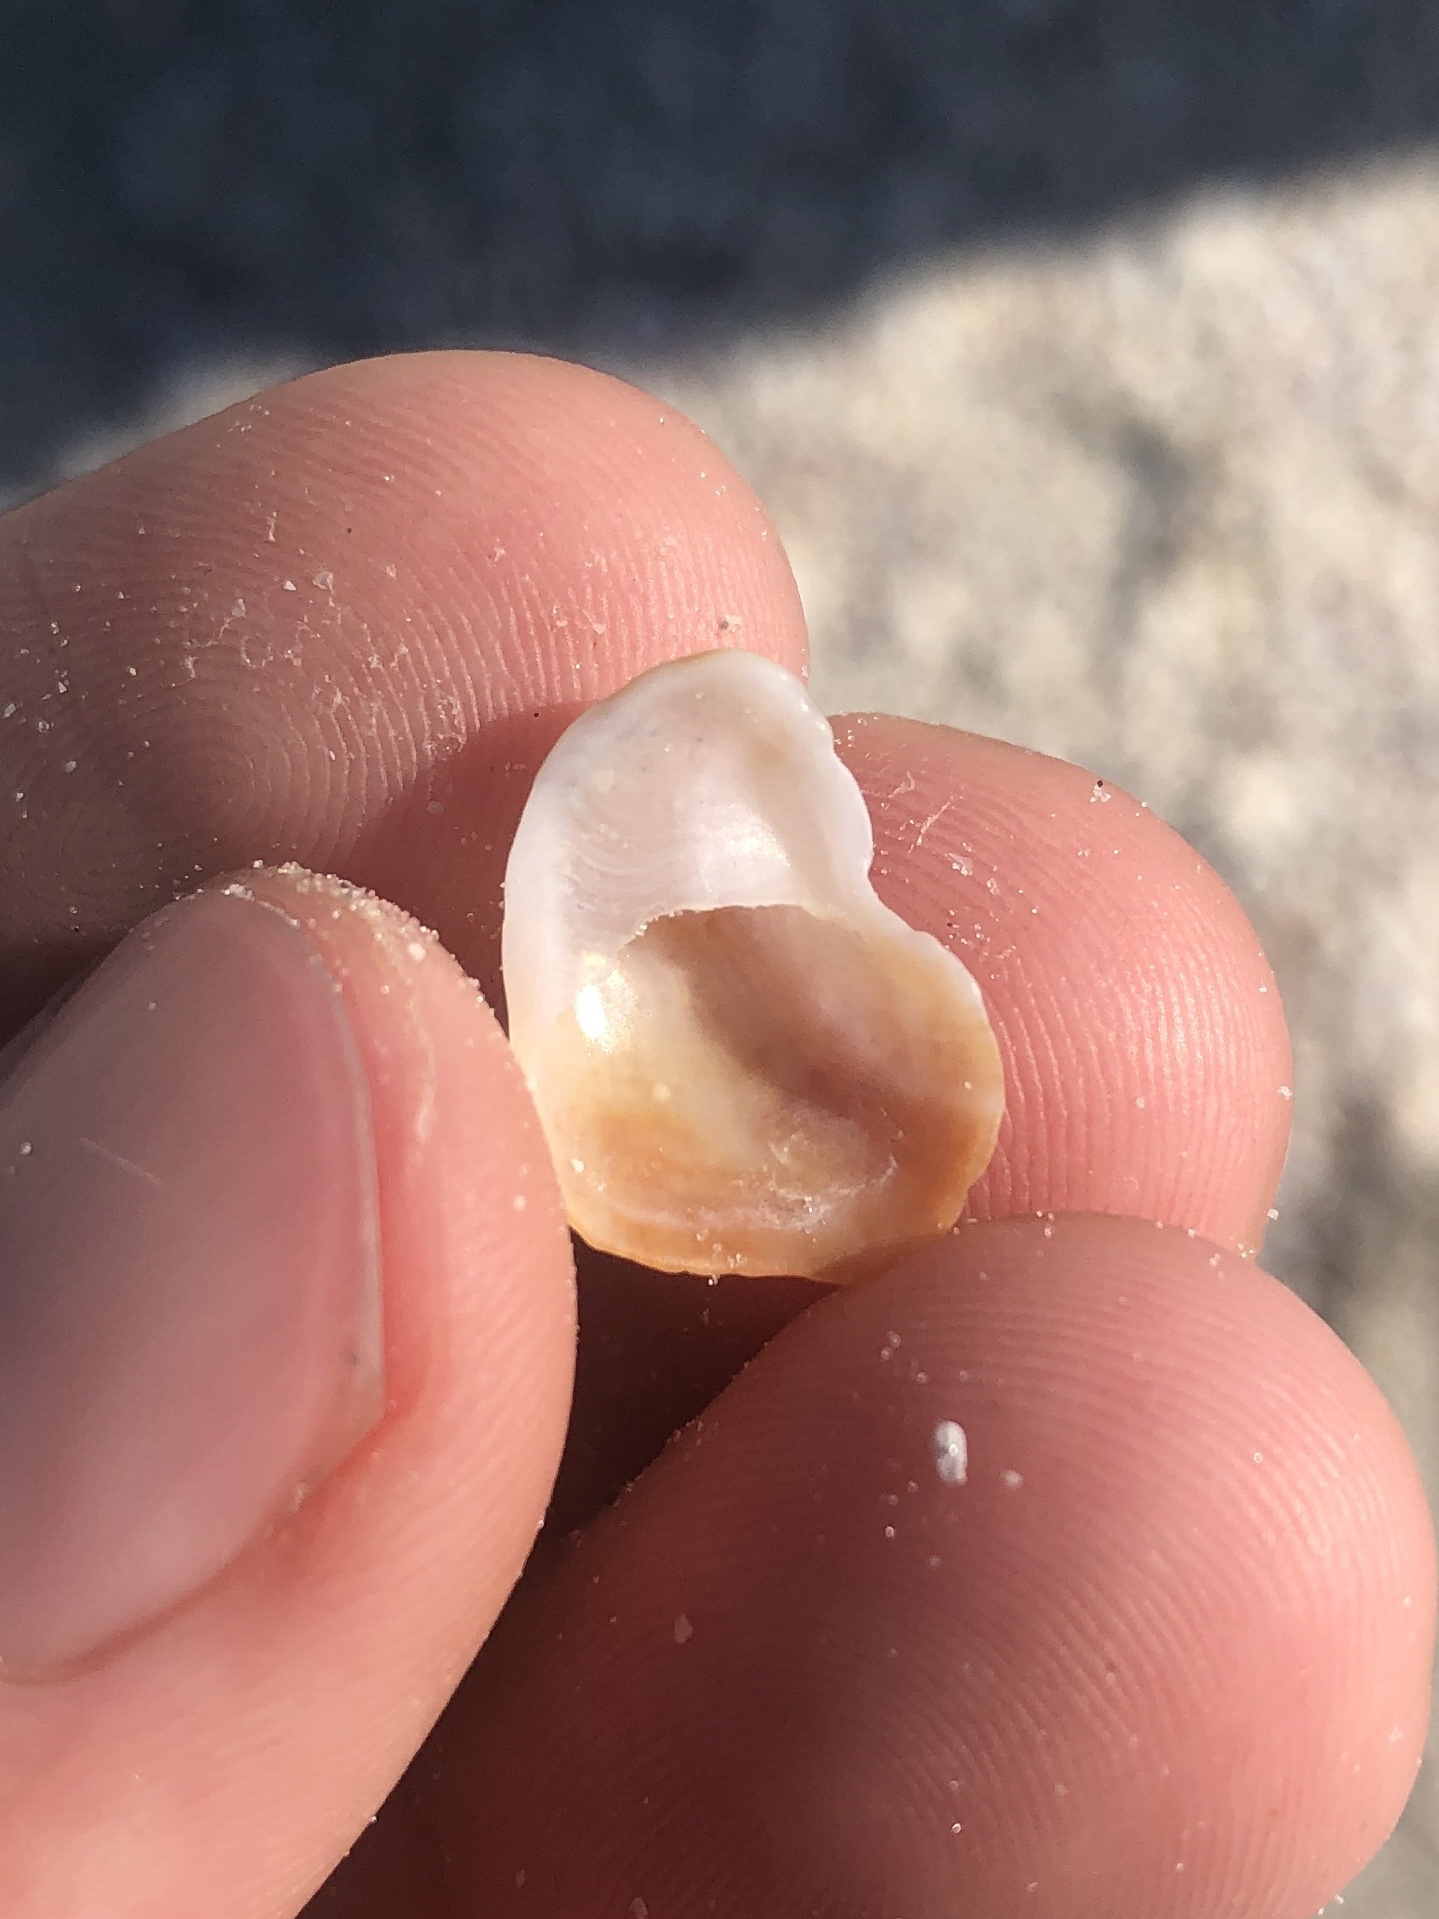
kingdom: Animalia
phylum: Mollusca
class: Gastropoda
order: Littorinimorpha
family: Calyptraeidae
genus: Bostrycapulus
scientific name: Bostrycapulus aculeatus
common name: Spiny slippersnail
